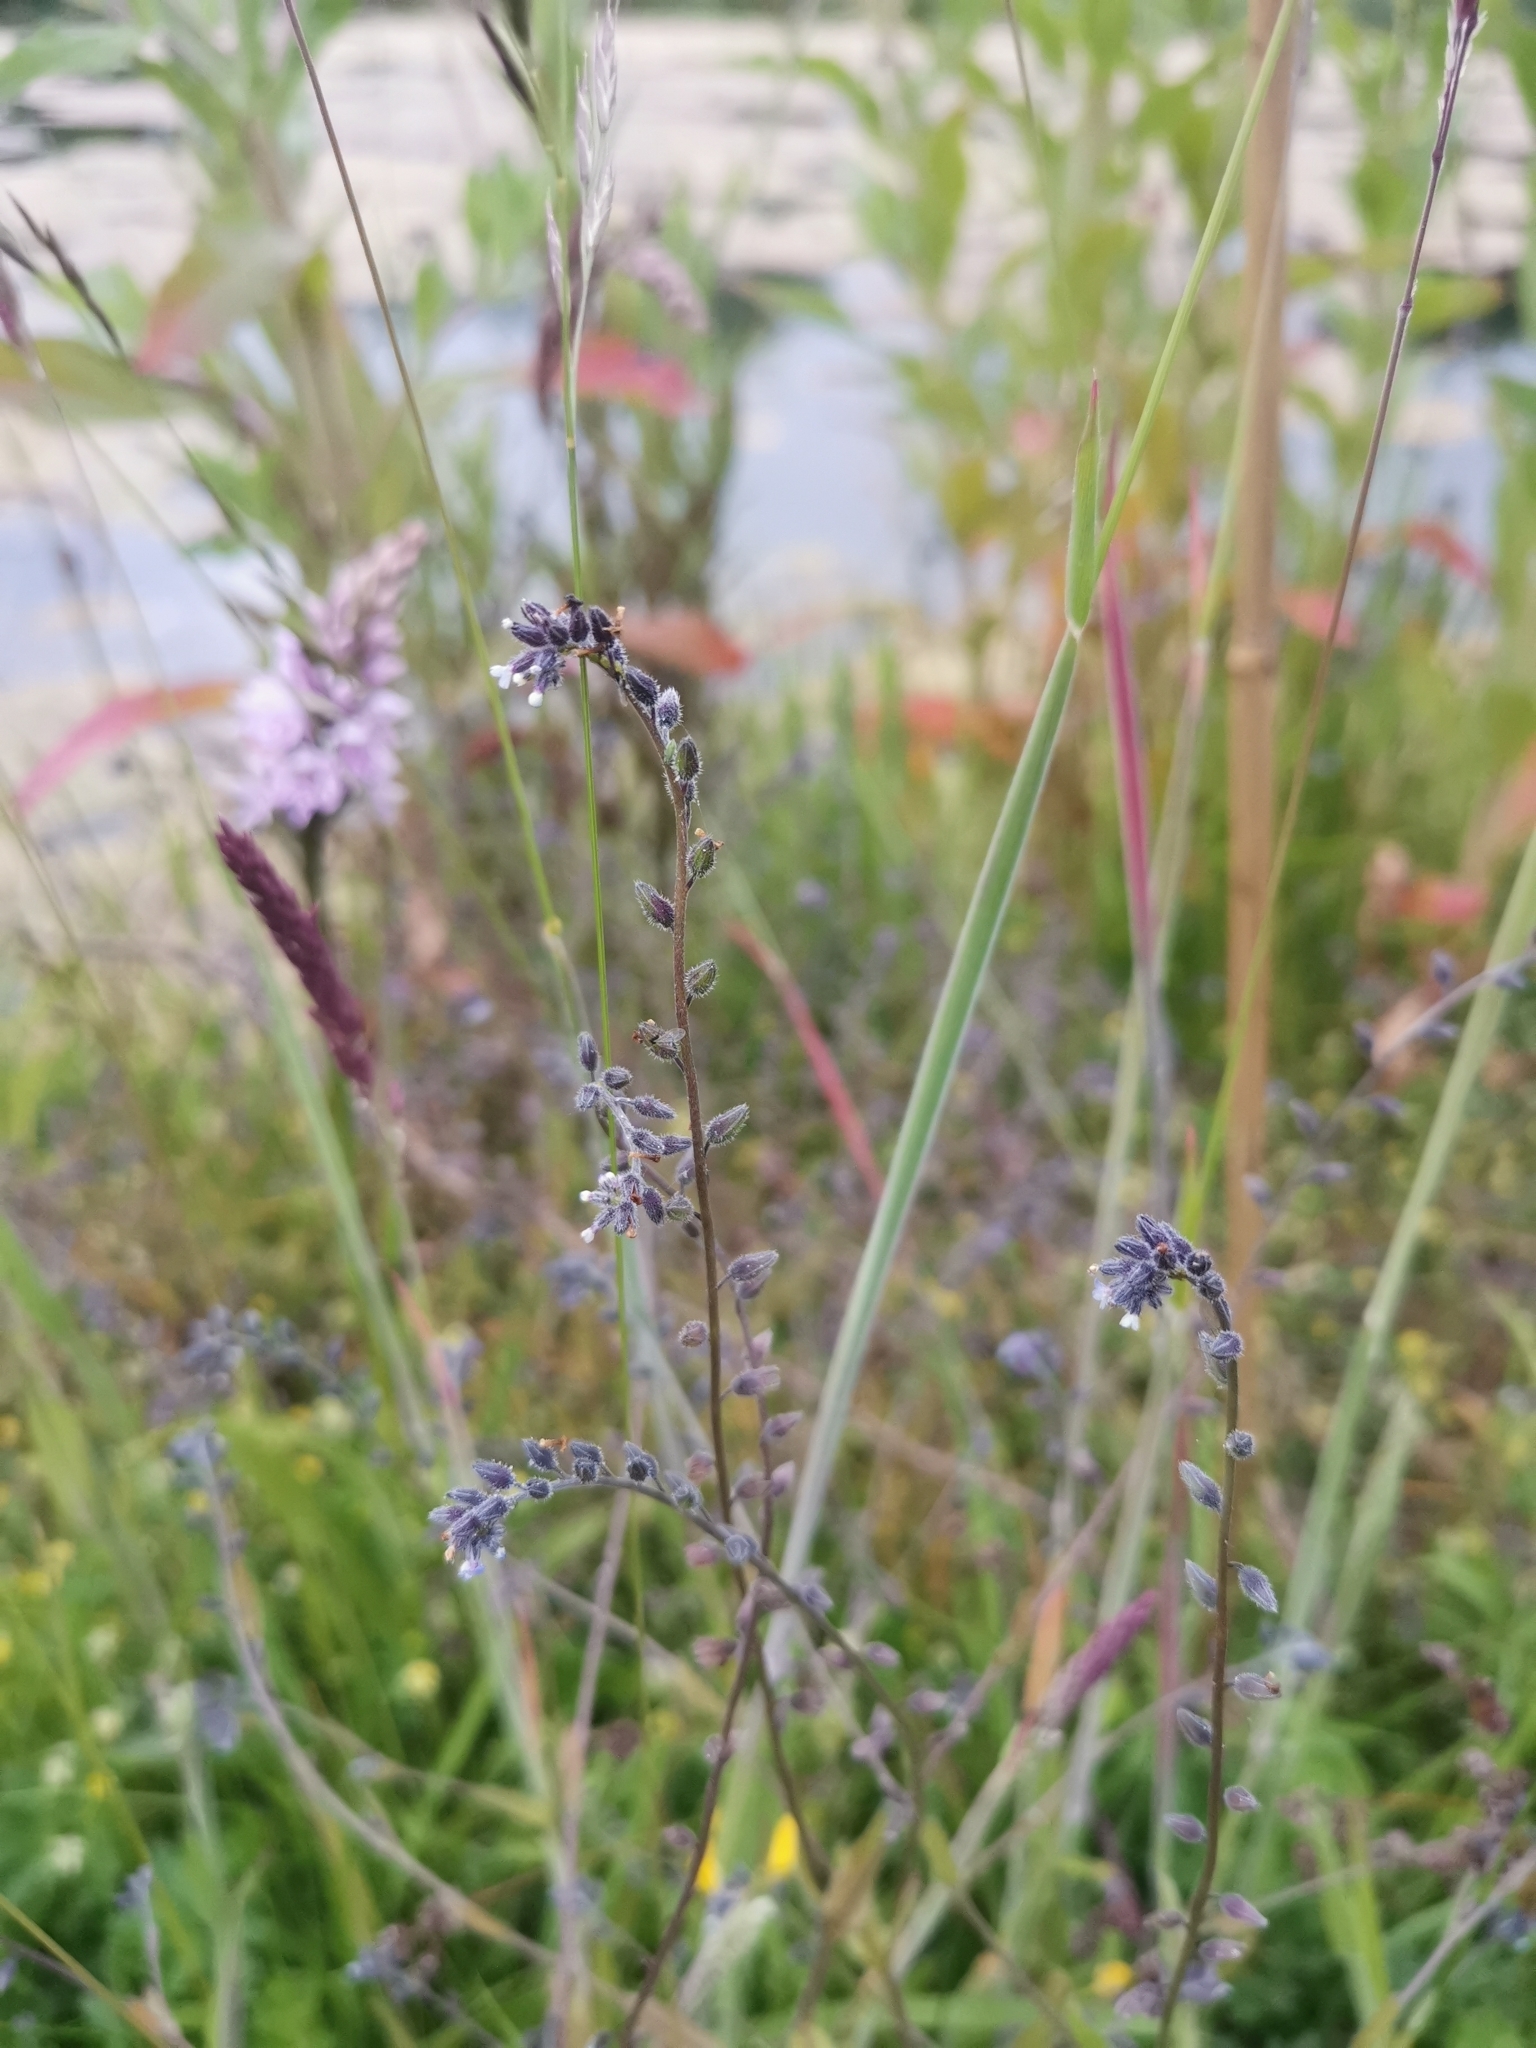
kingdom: Plantae
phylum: Tracheophyta
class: Magnoliopsida
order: Boraginales
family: Boraginaceae
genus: Myosotis
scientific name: Myosotis discolor
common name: Changing forget-me-not
